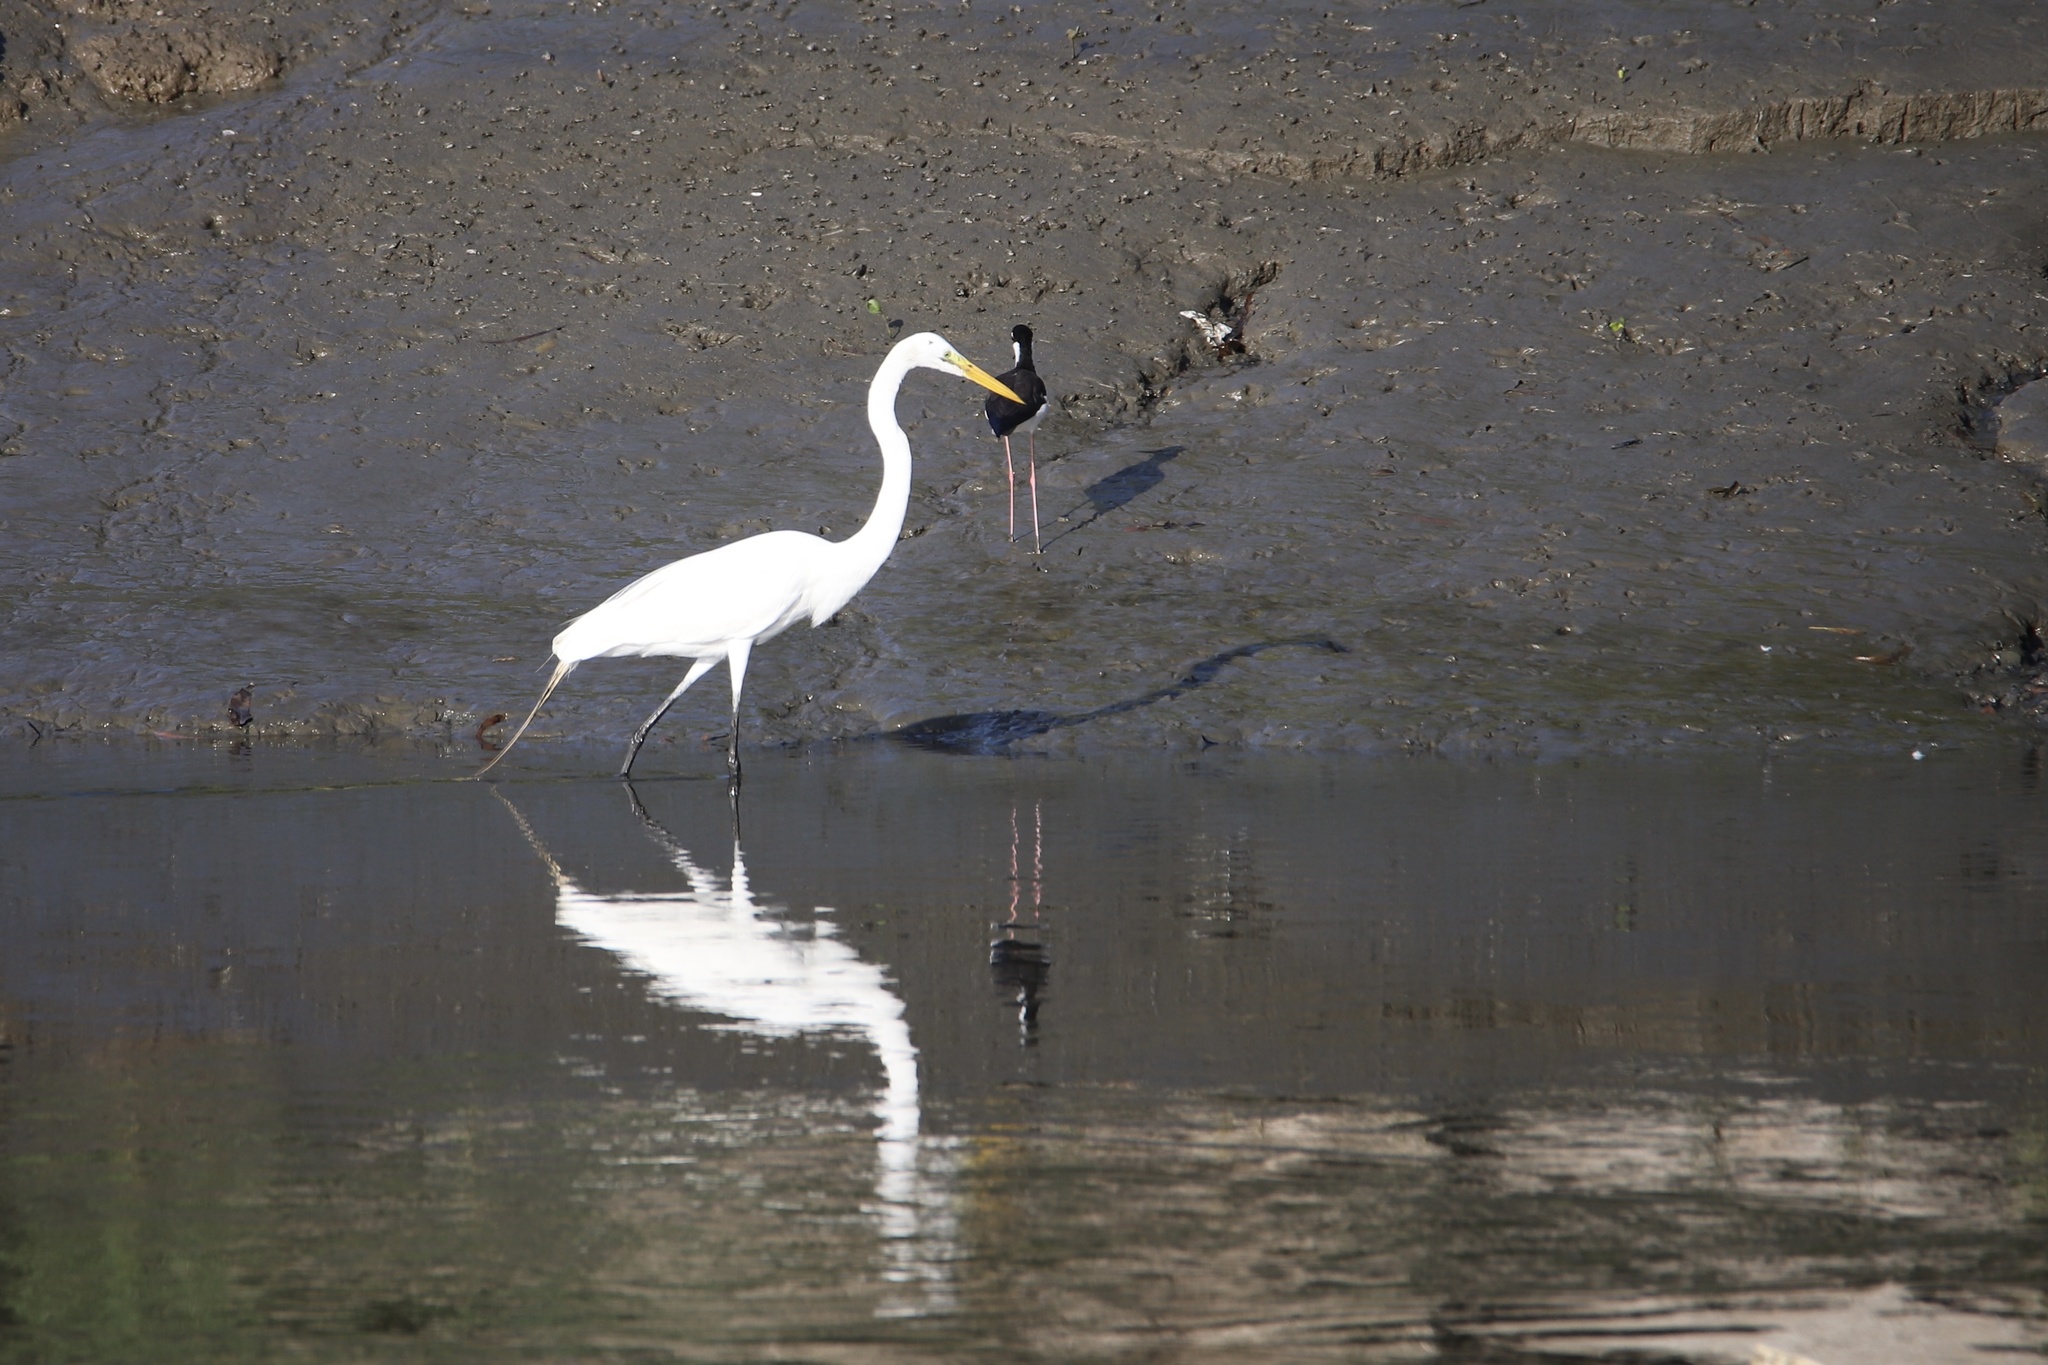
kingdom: Animalia
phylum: Chordata
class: Aves
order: Pelecaniformes
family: Ardeidae
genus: Ardea
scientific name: Ardea alba
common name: Great egret
